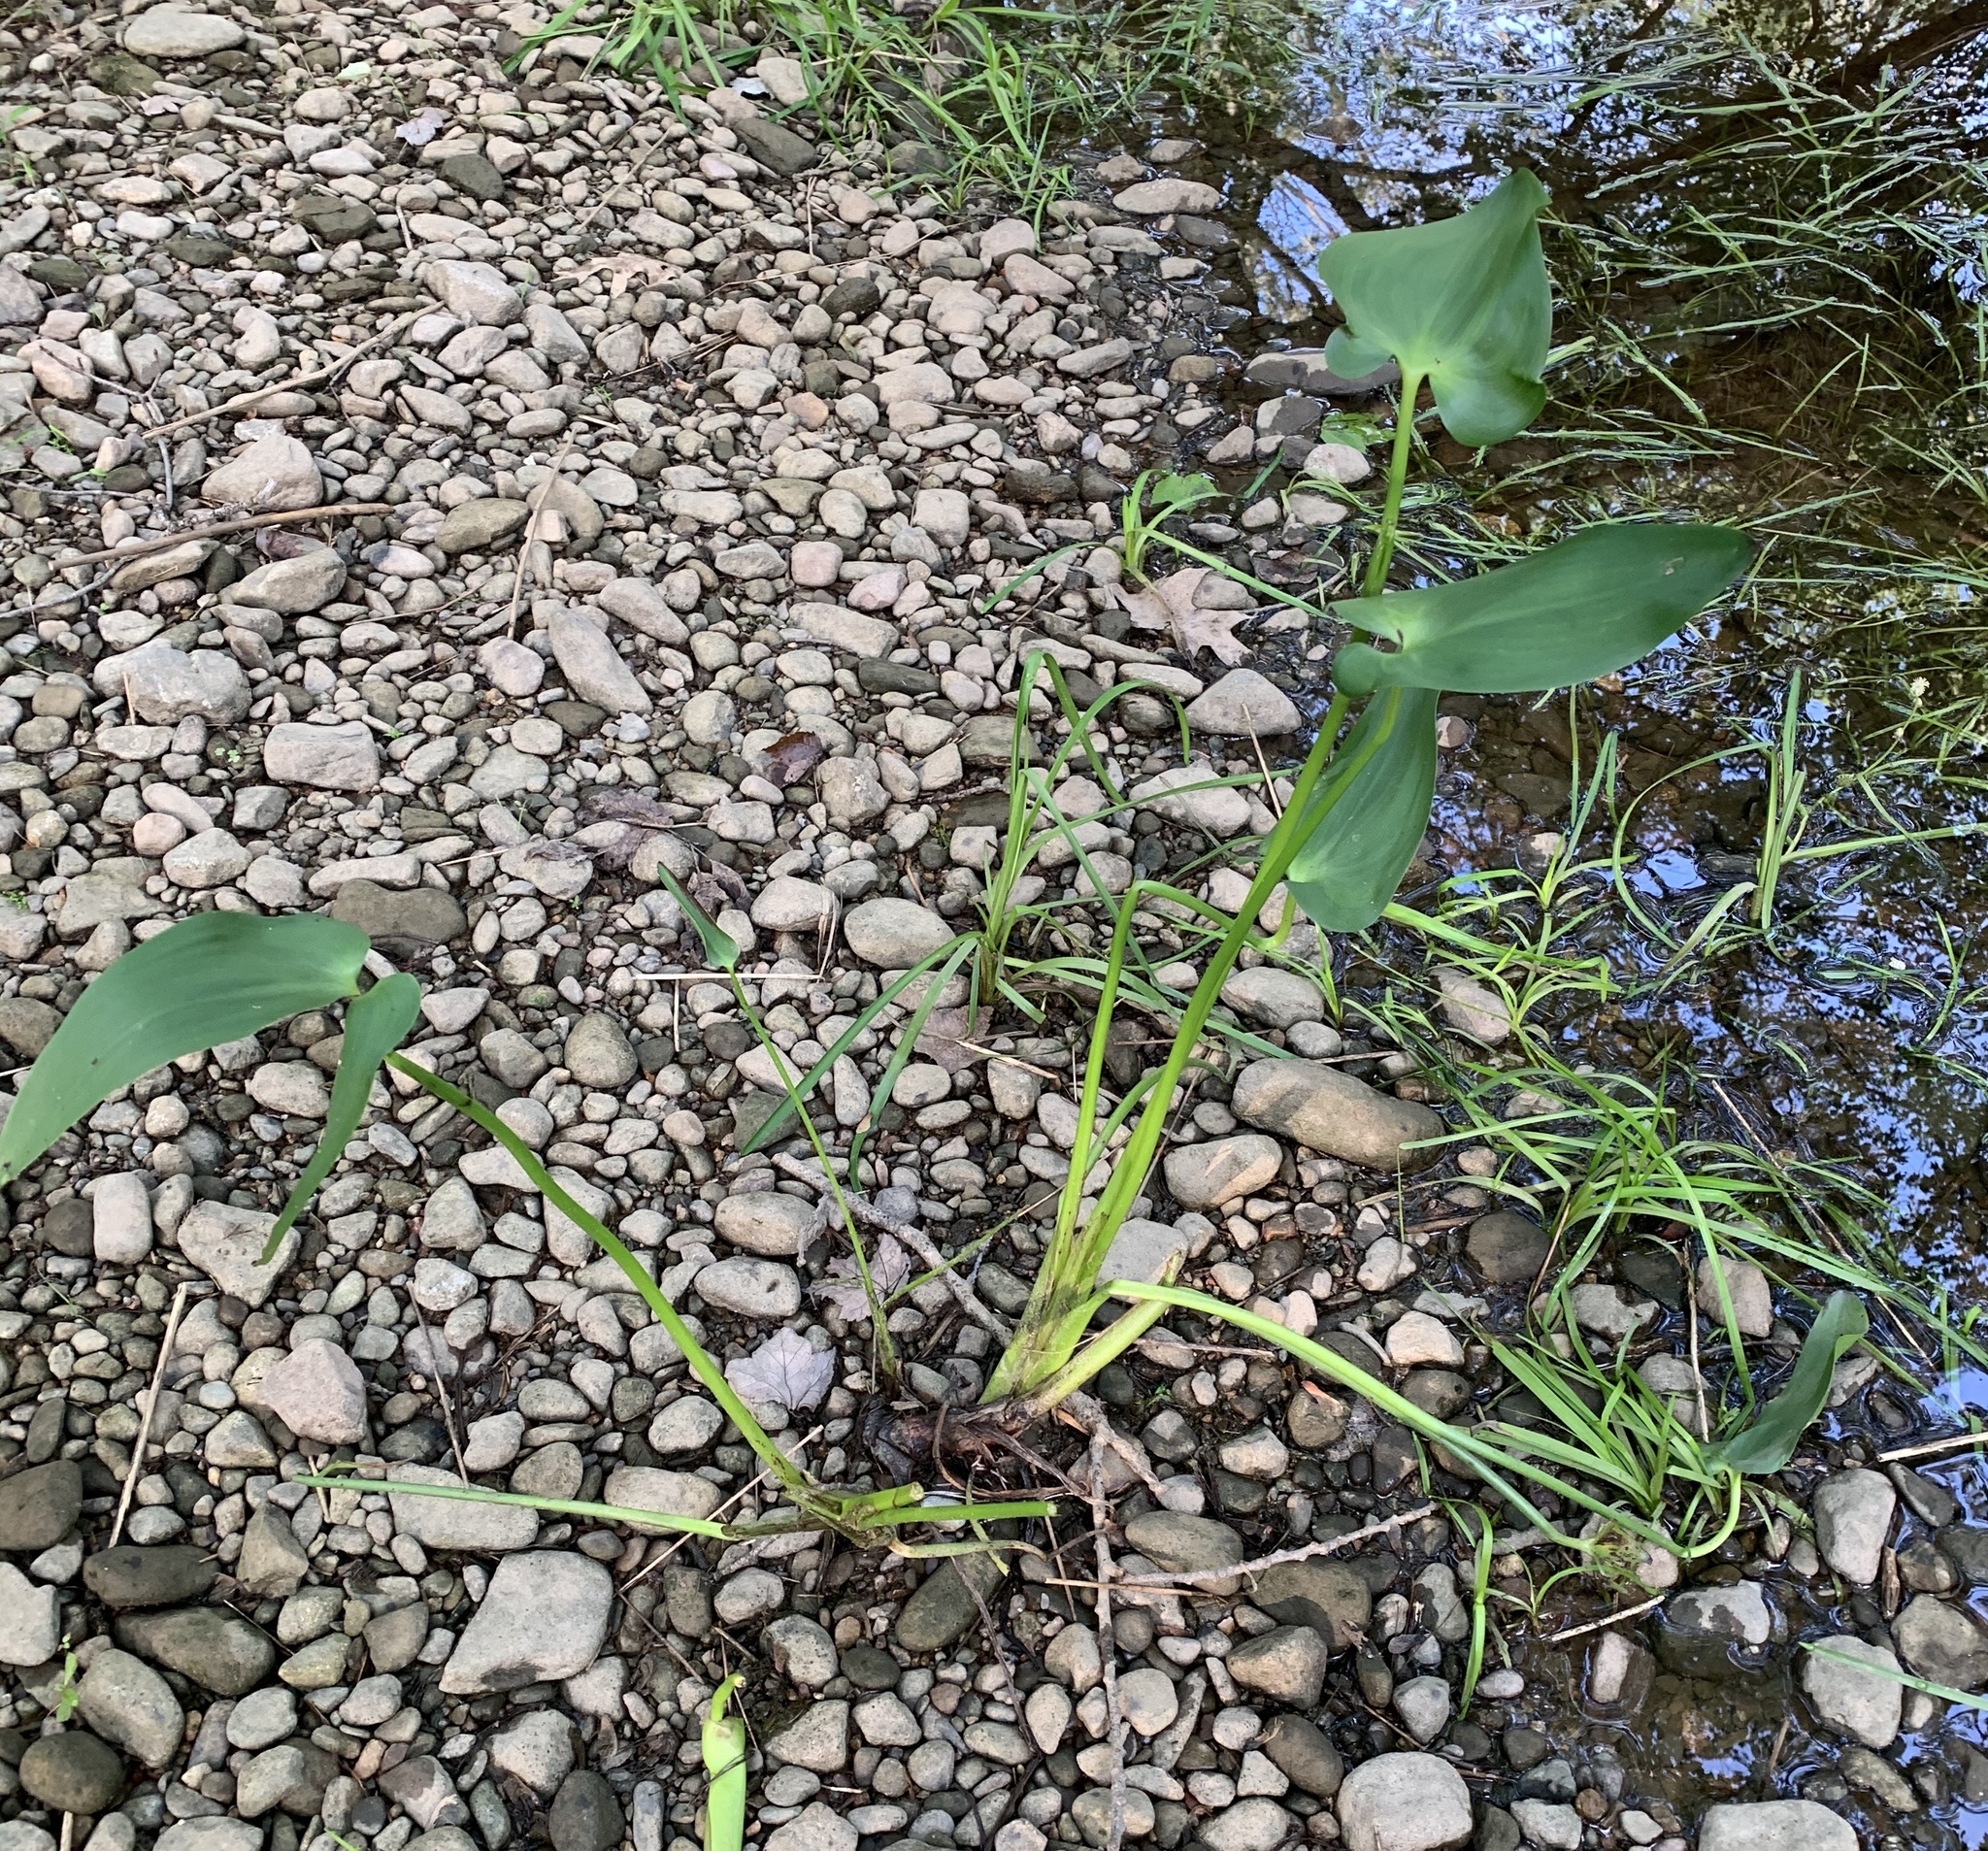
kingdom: Plantae
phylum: Tracheophyta
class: Liliopsida
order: Commelinales
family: Pontederiaceae
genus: Pontederia
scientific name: Pontederia cordata
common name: Pickerelweed
